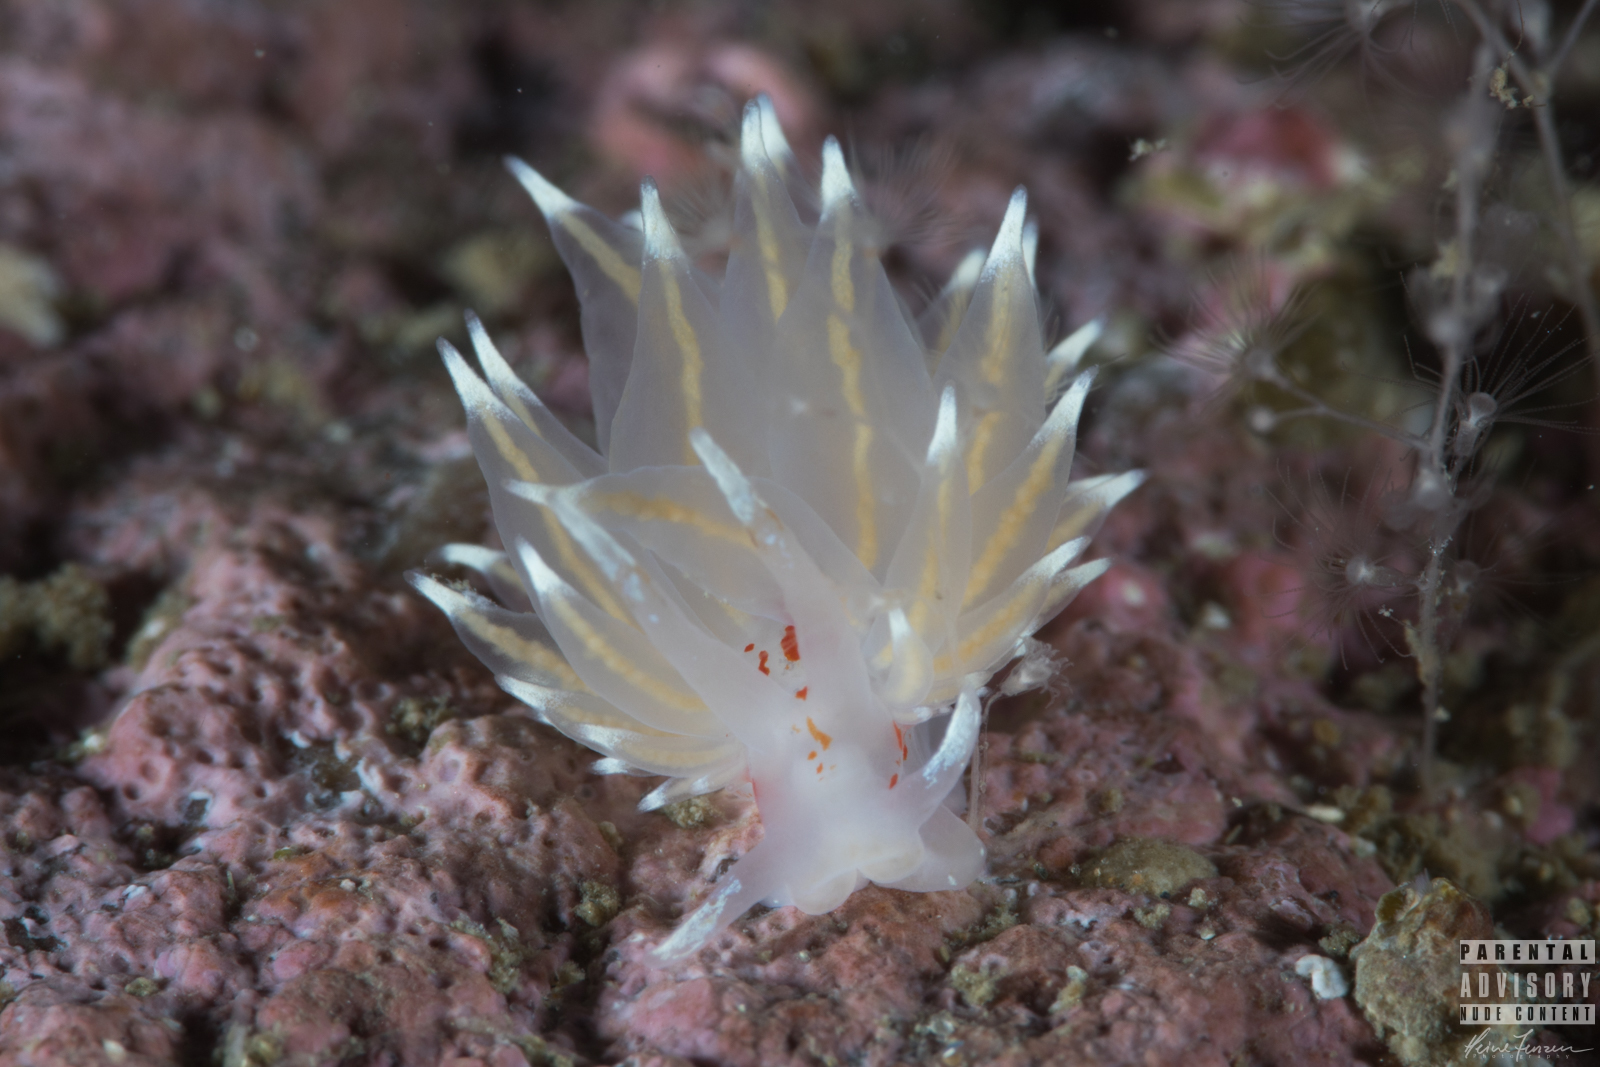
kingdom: Animalia
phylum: Mollusca
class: Gastropoda
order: Nudibranchia
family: Eubranchidae
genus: Amphorina
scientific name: Amphorina linensis
